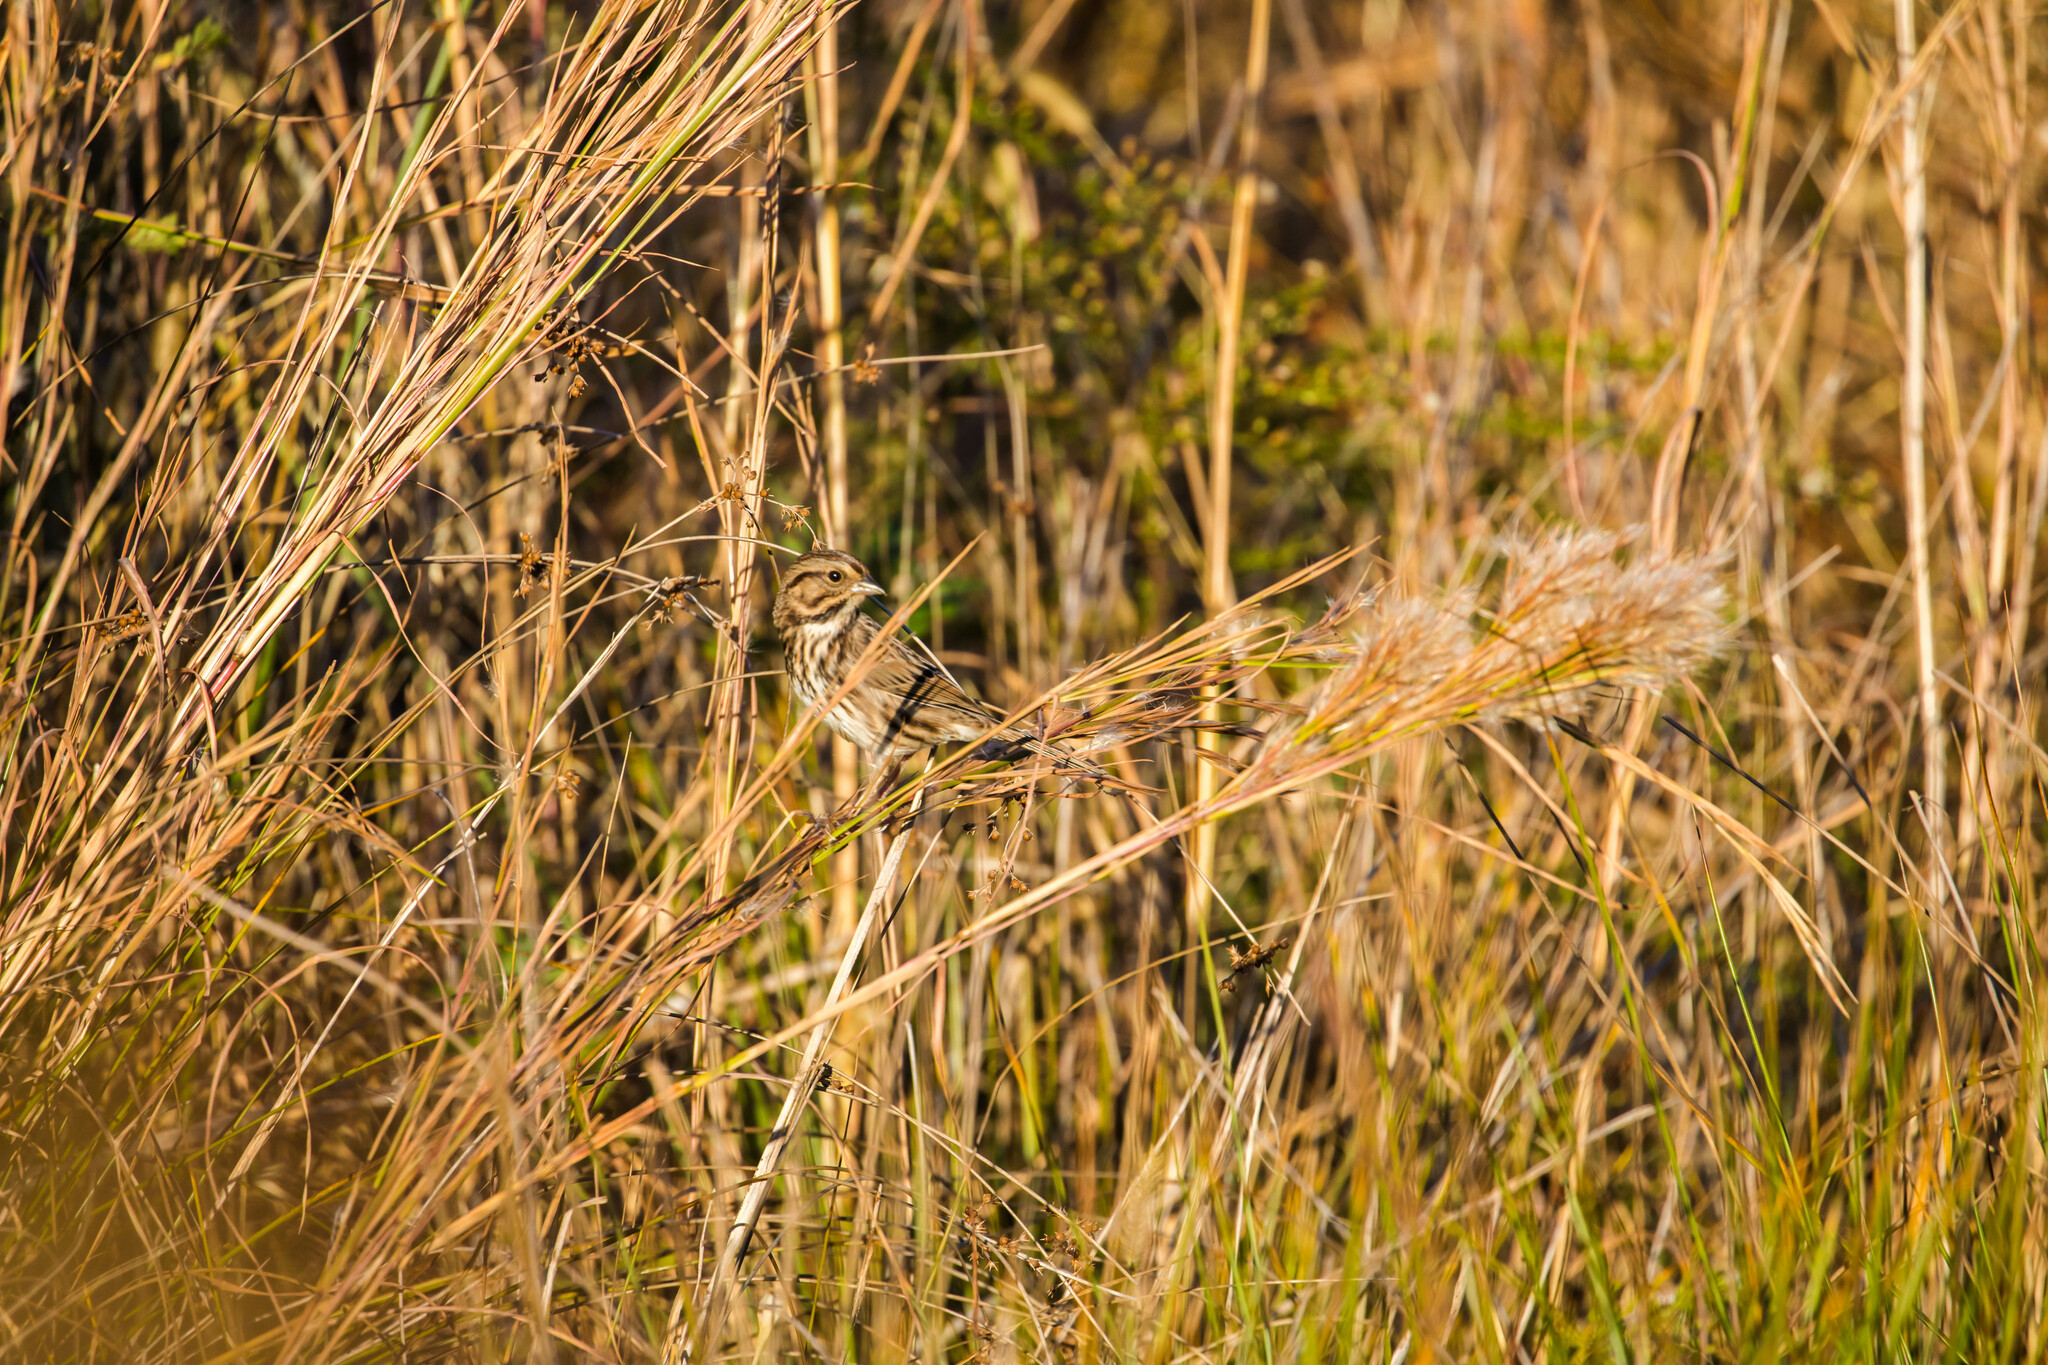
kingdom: Animalia
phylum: Chordata
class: Aves
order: Passeriformes
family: Passerellidae
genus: Melospiza
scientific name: Melospiza melodia
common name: Song sparrow
